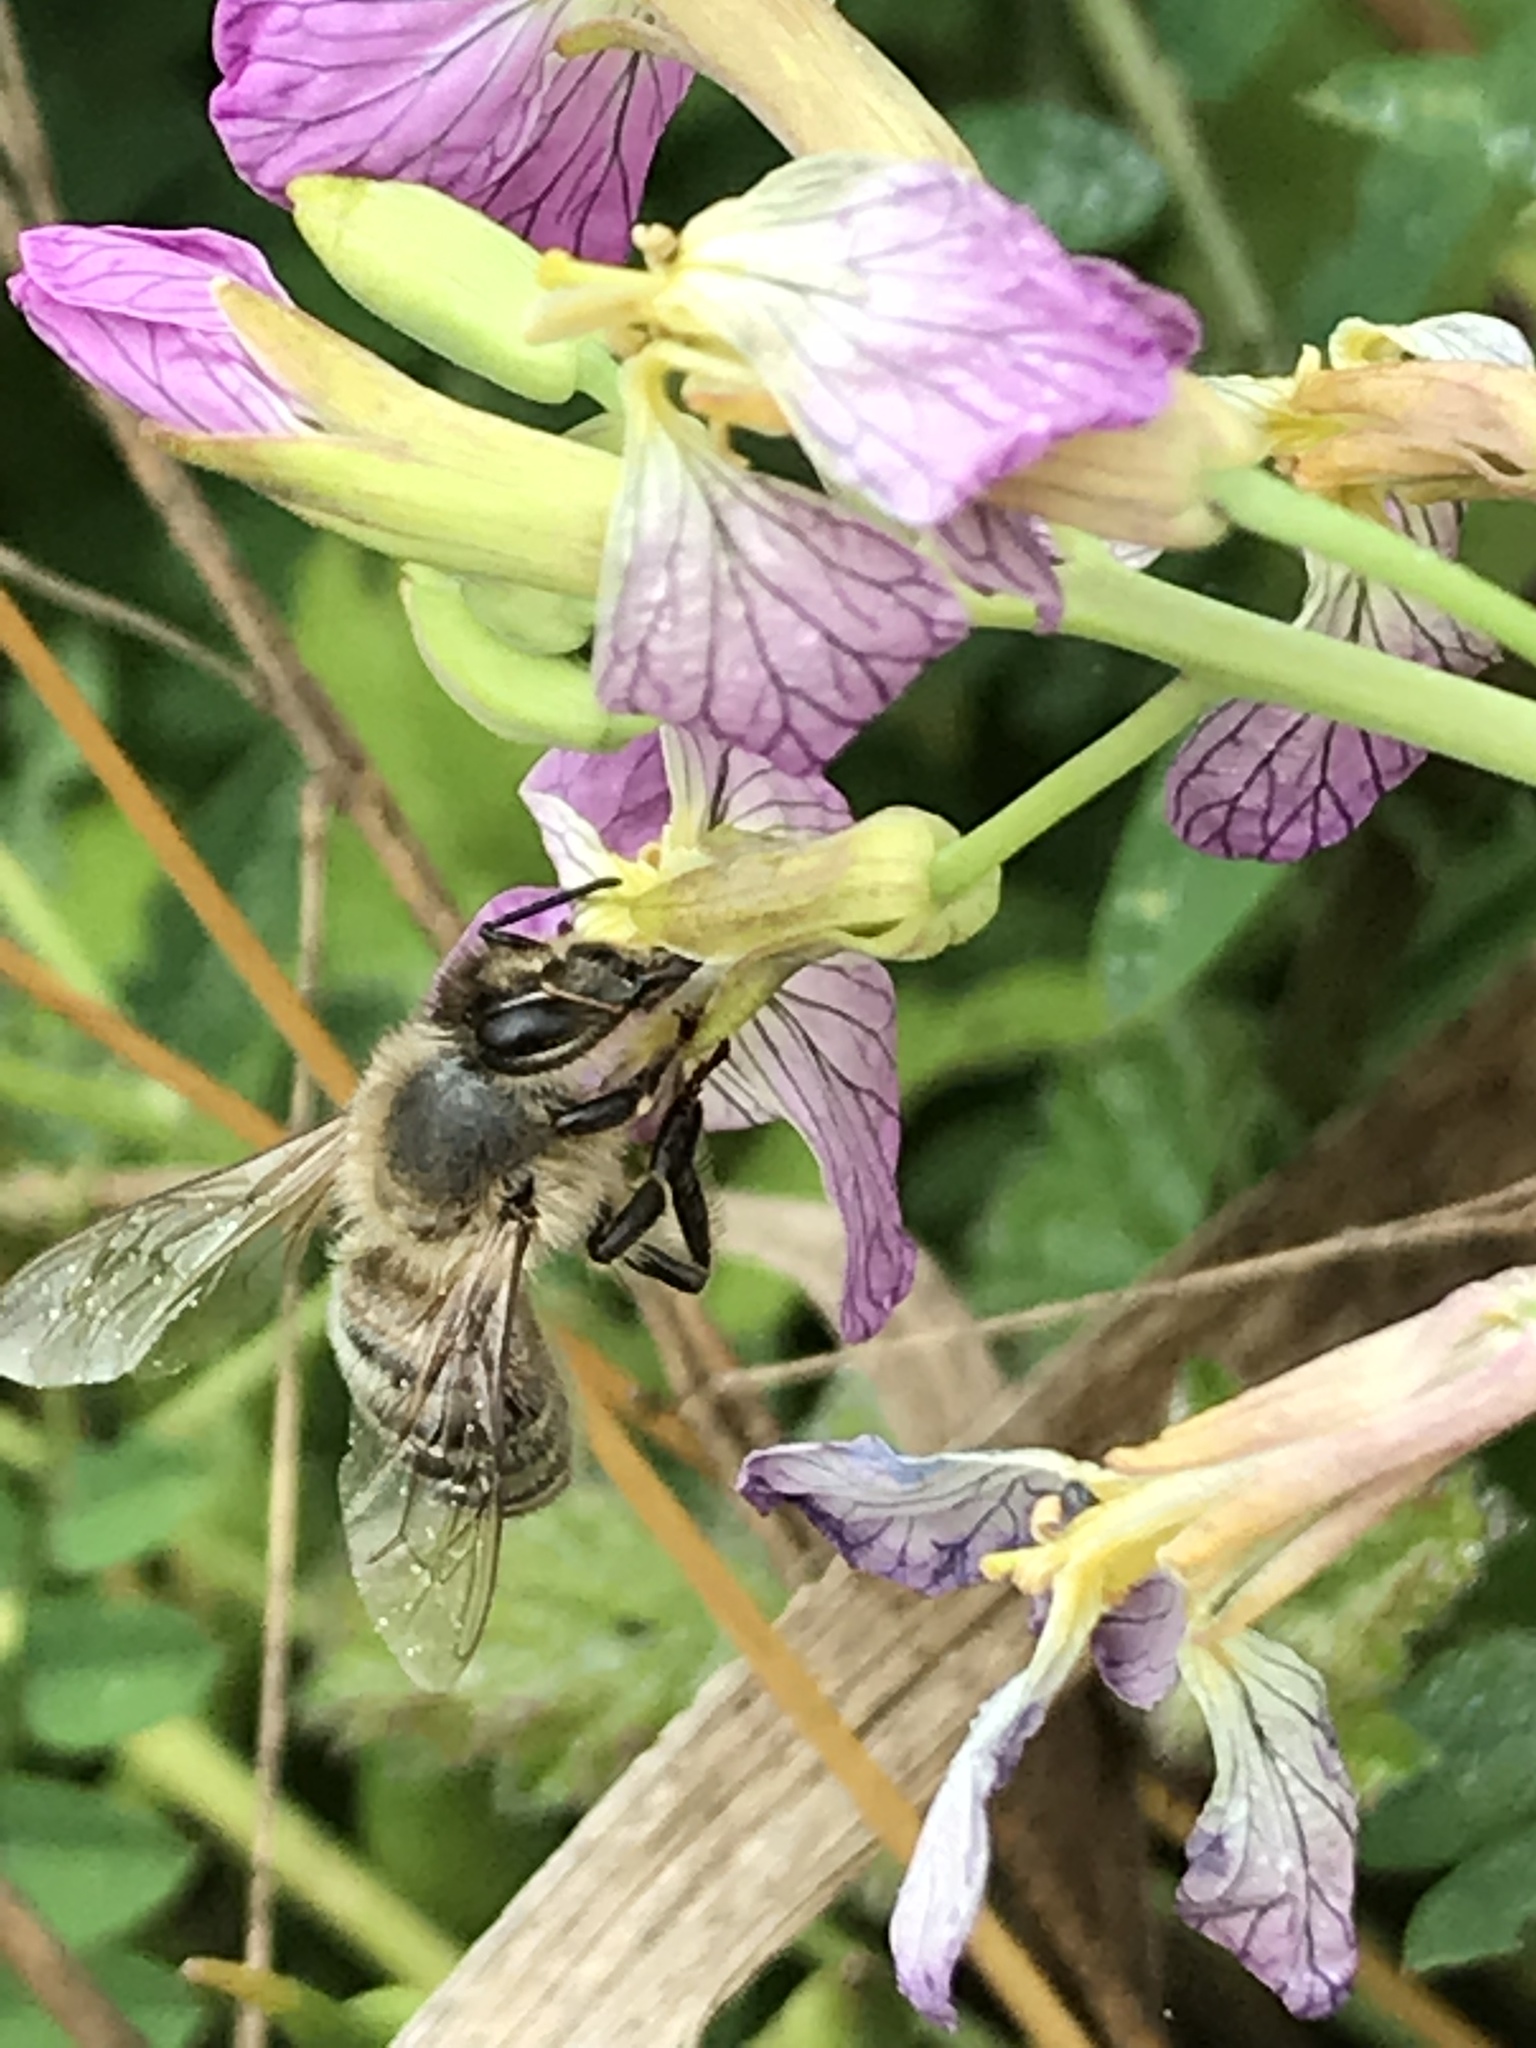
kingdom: Animalia
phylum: Arthropoda
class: Insecta
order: Hymenoptera
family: Apidae
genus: Apis
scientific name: Apis mellifera
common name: Honey bee
